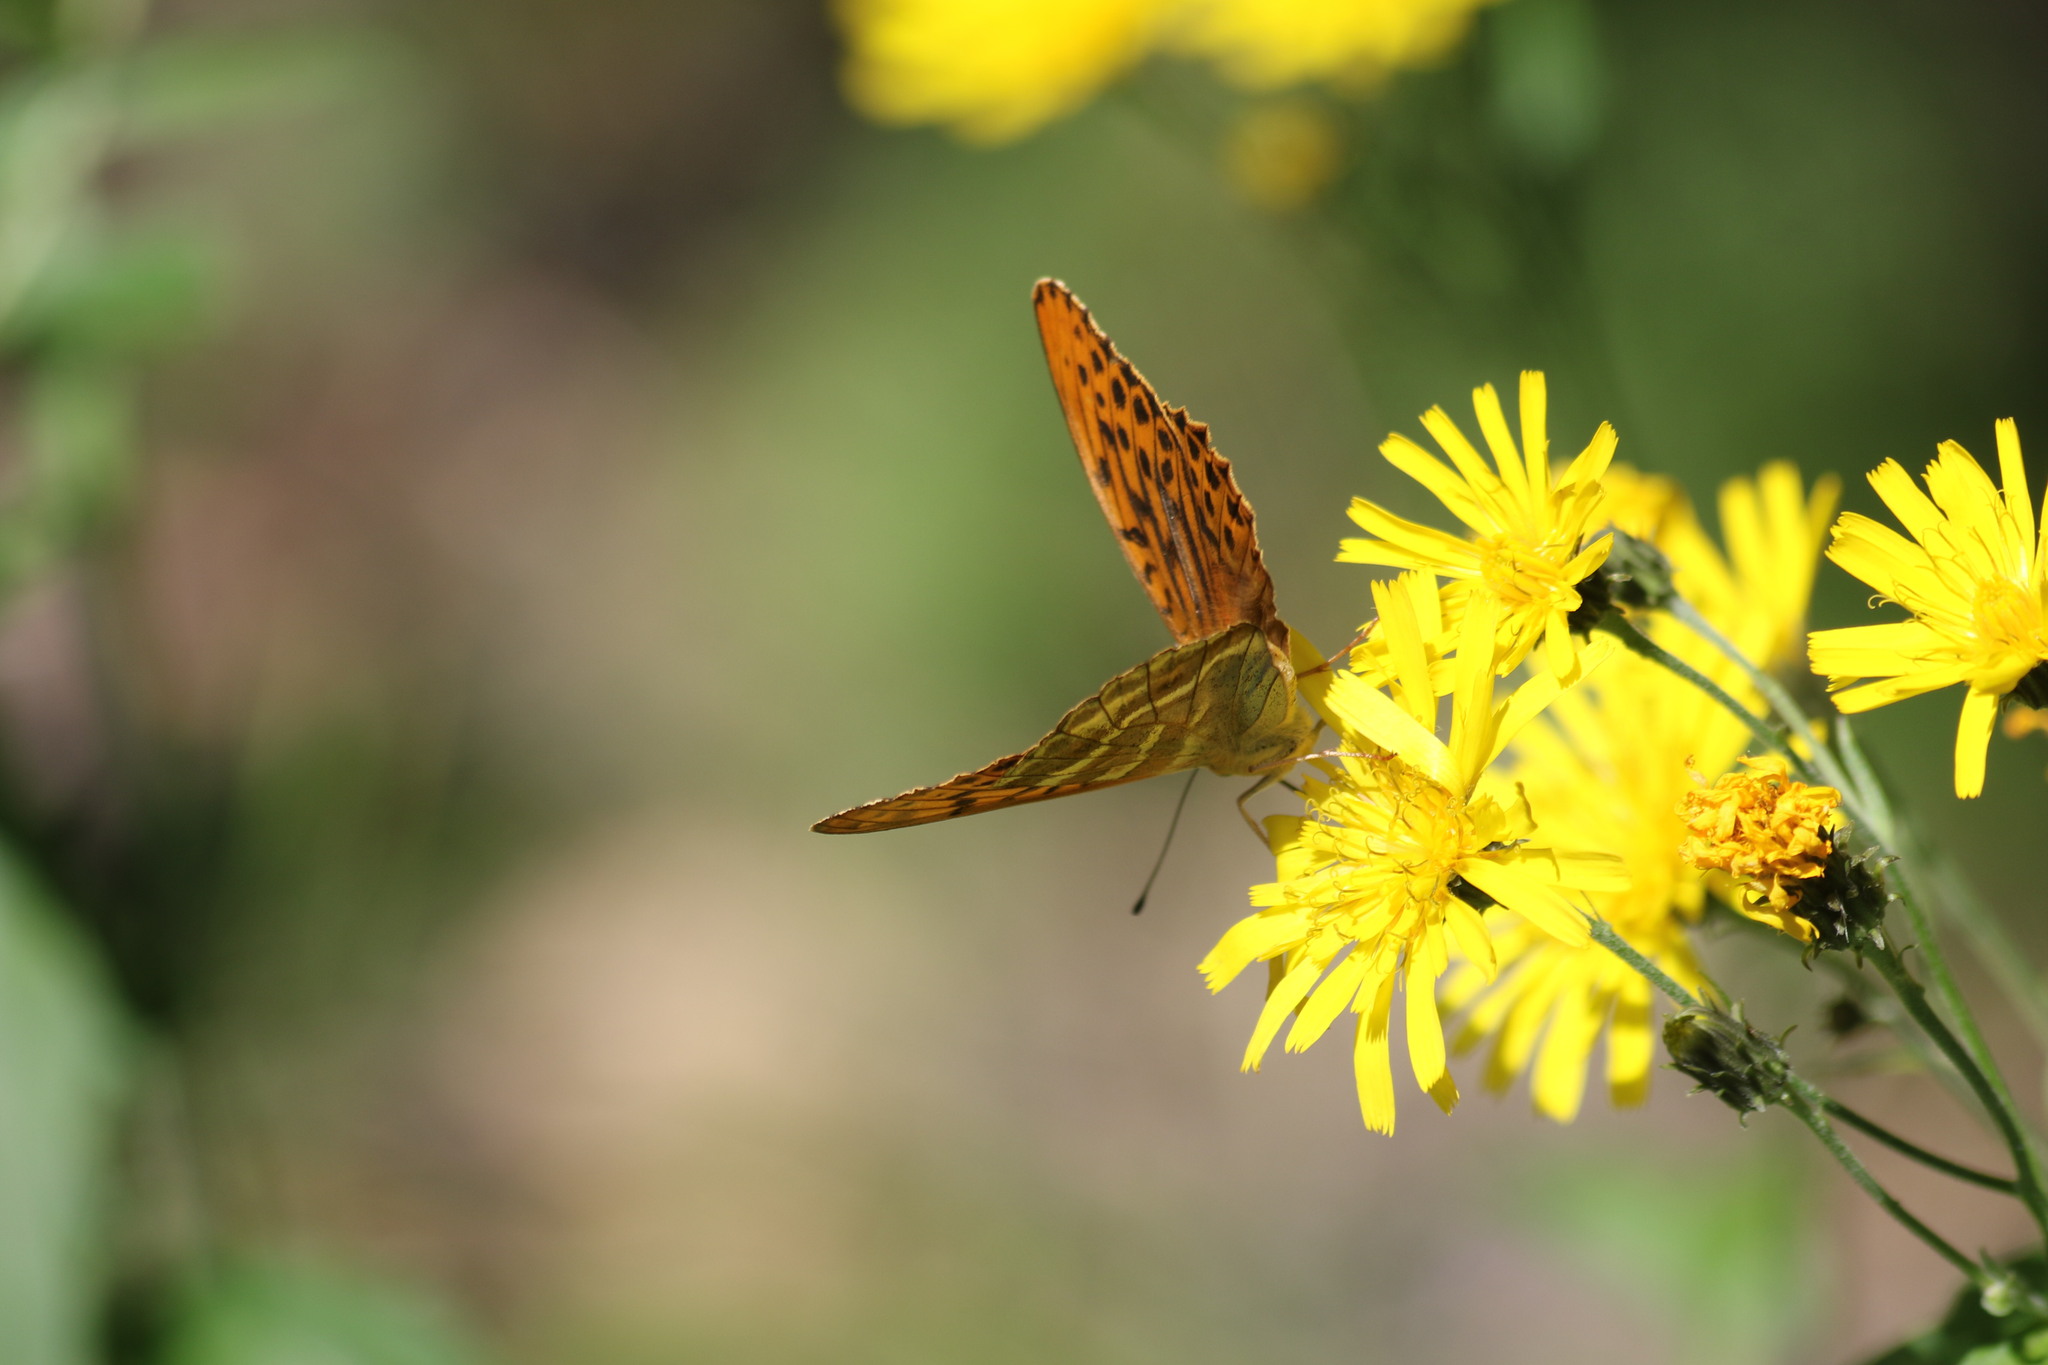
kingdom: Animalia
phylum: Arthropoda
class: Insecta
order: Lepidoptera
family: Nymphalidae
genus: Argynnis
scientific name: Argynnis paphia
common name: Silver-washed fritillary
